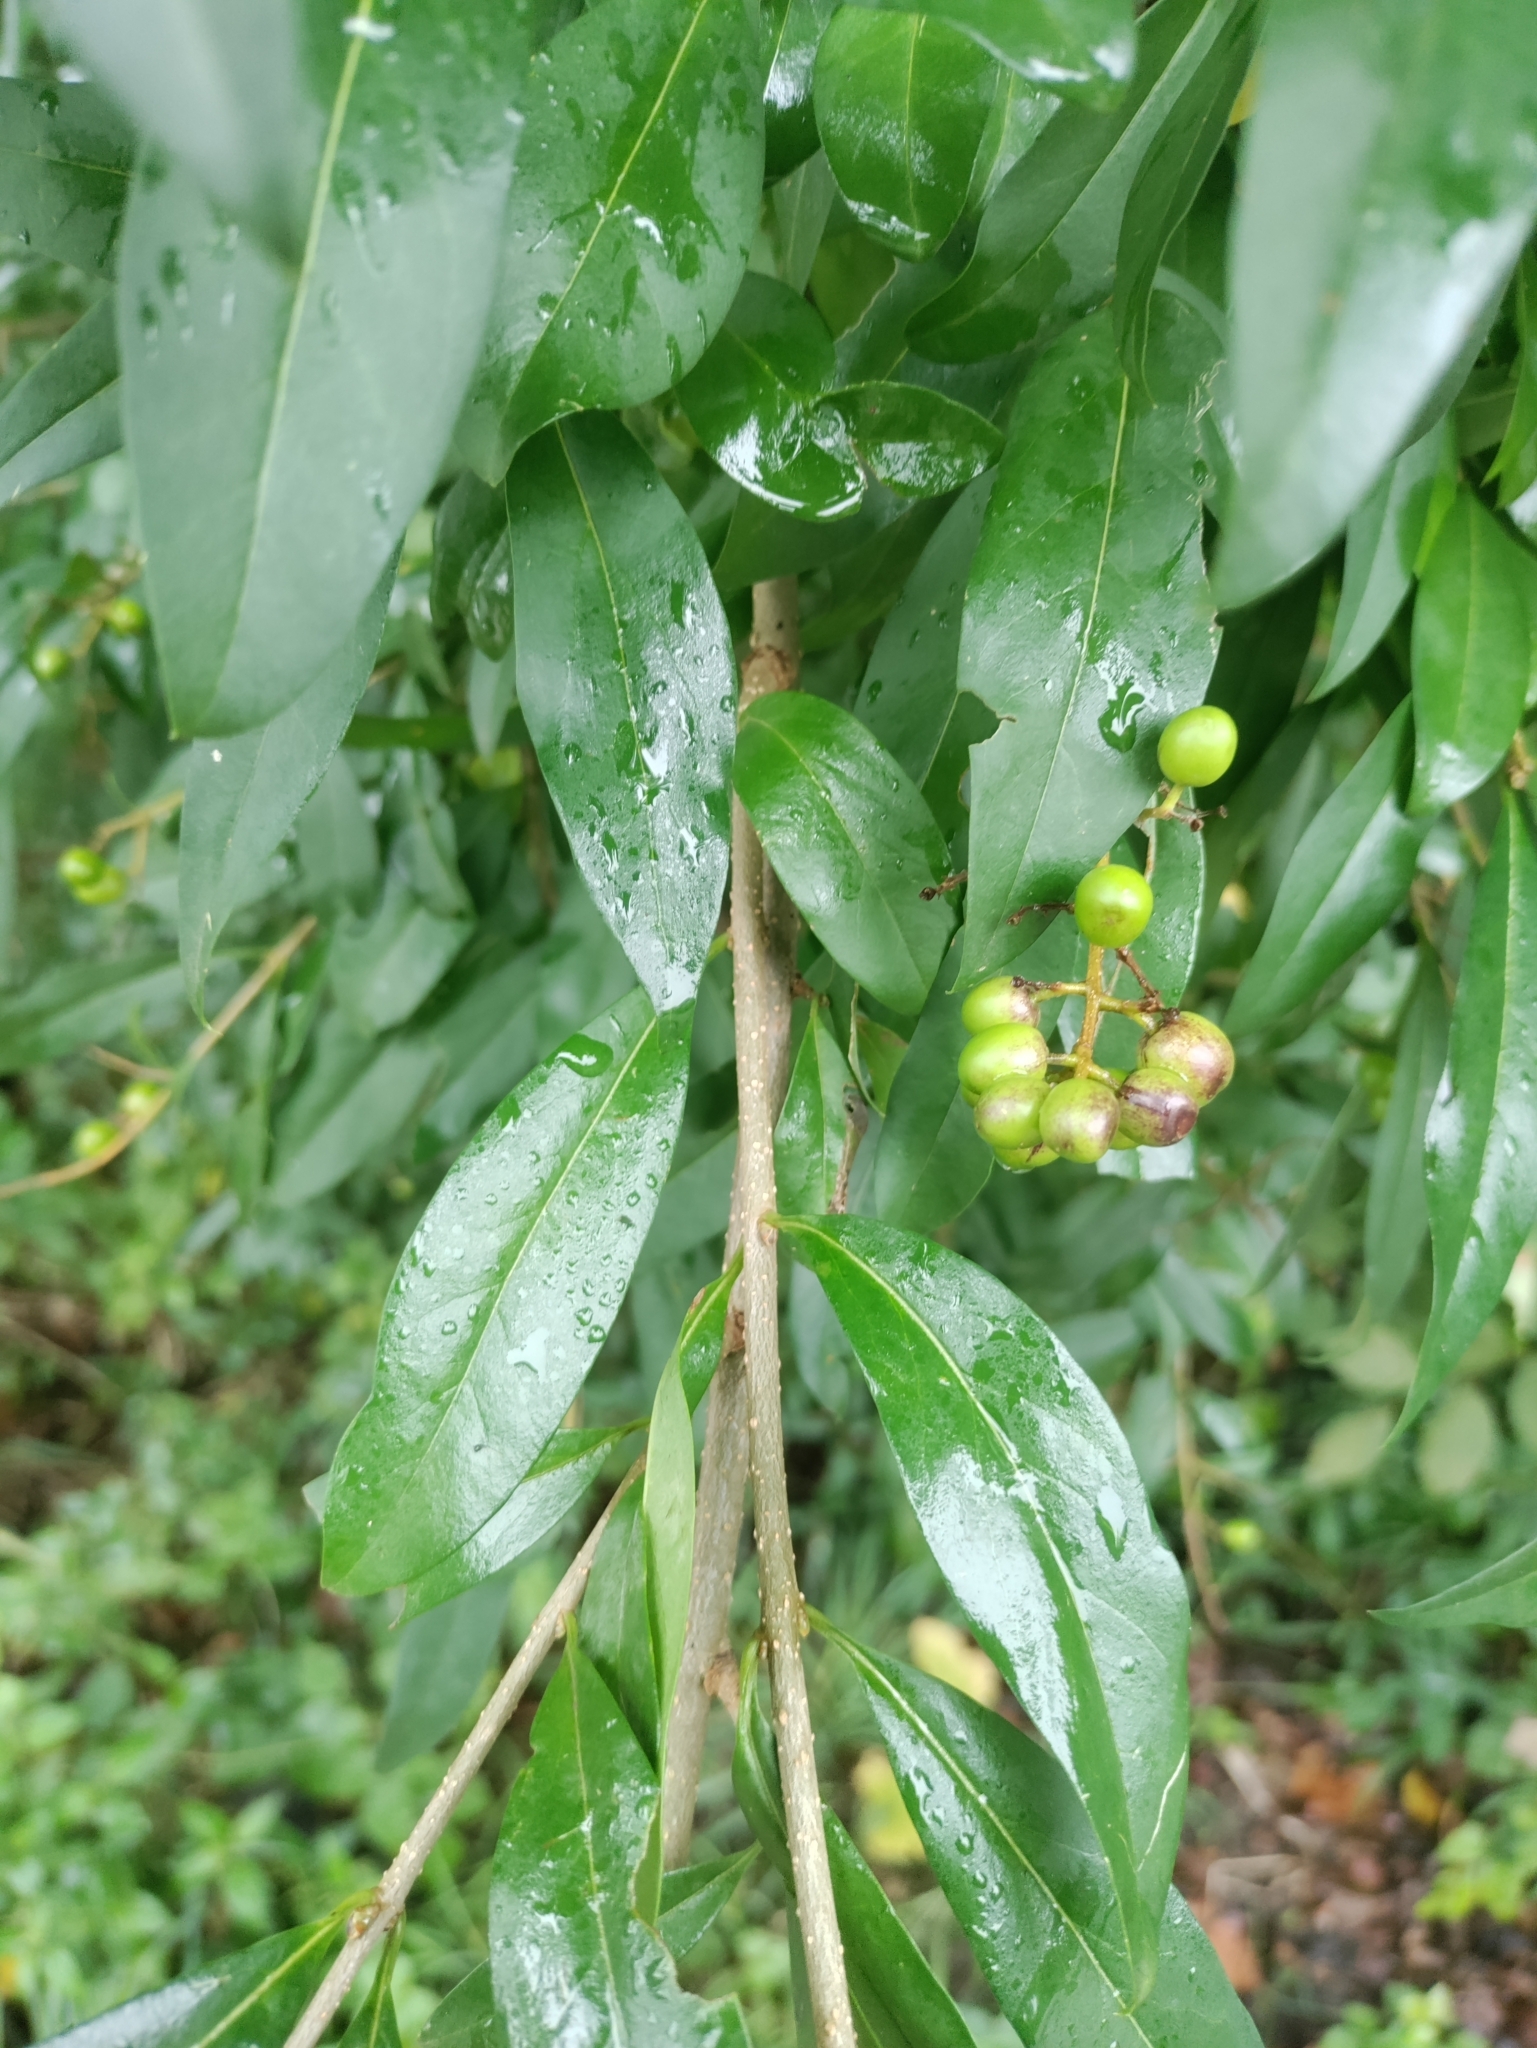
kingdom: Plantae
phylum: Tracheophyta
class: Magnoliopsida
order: Lamiales
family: Oleaceae
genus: Ligustrum
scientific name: Ligustrum vulgare
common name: Wild privet
